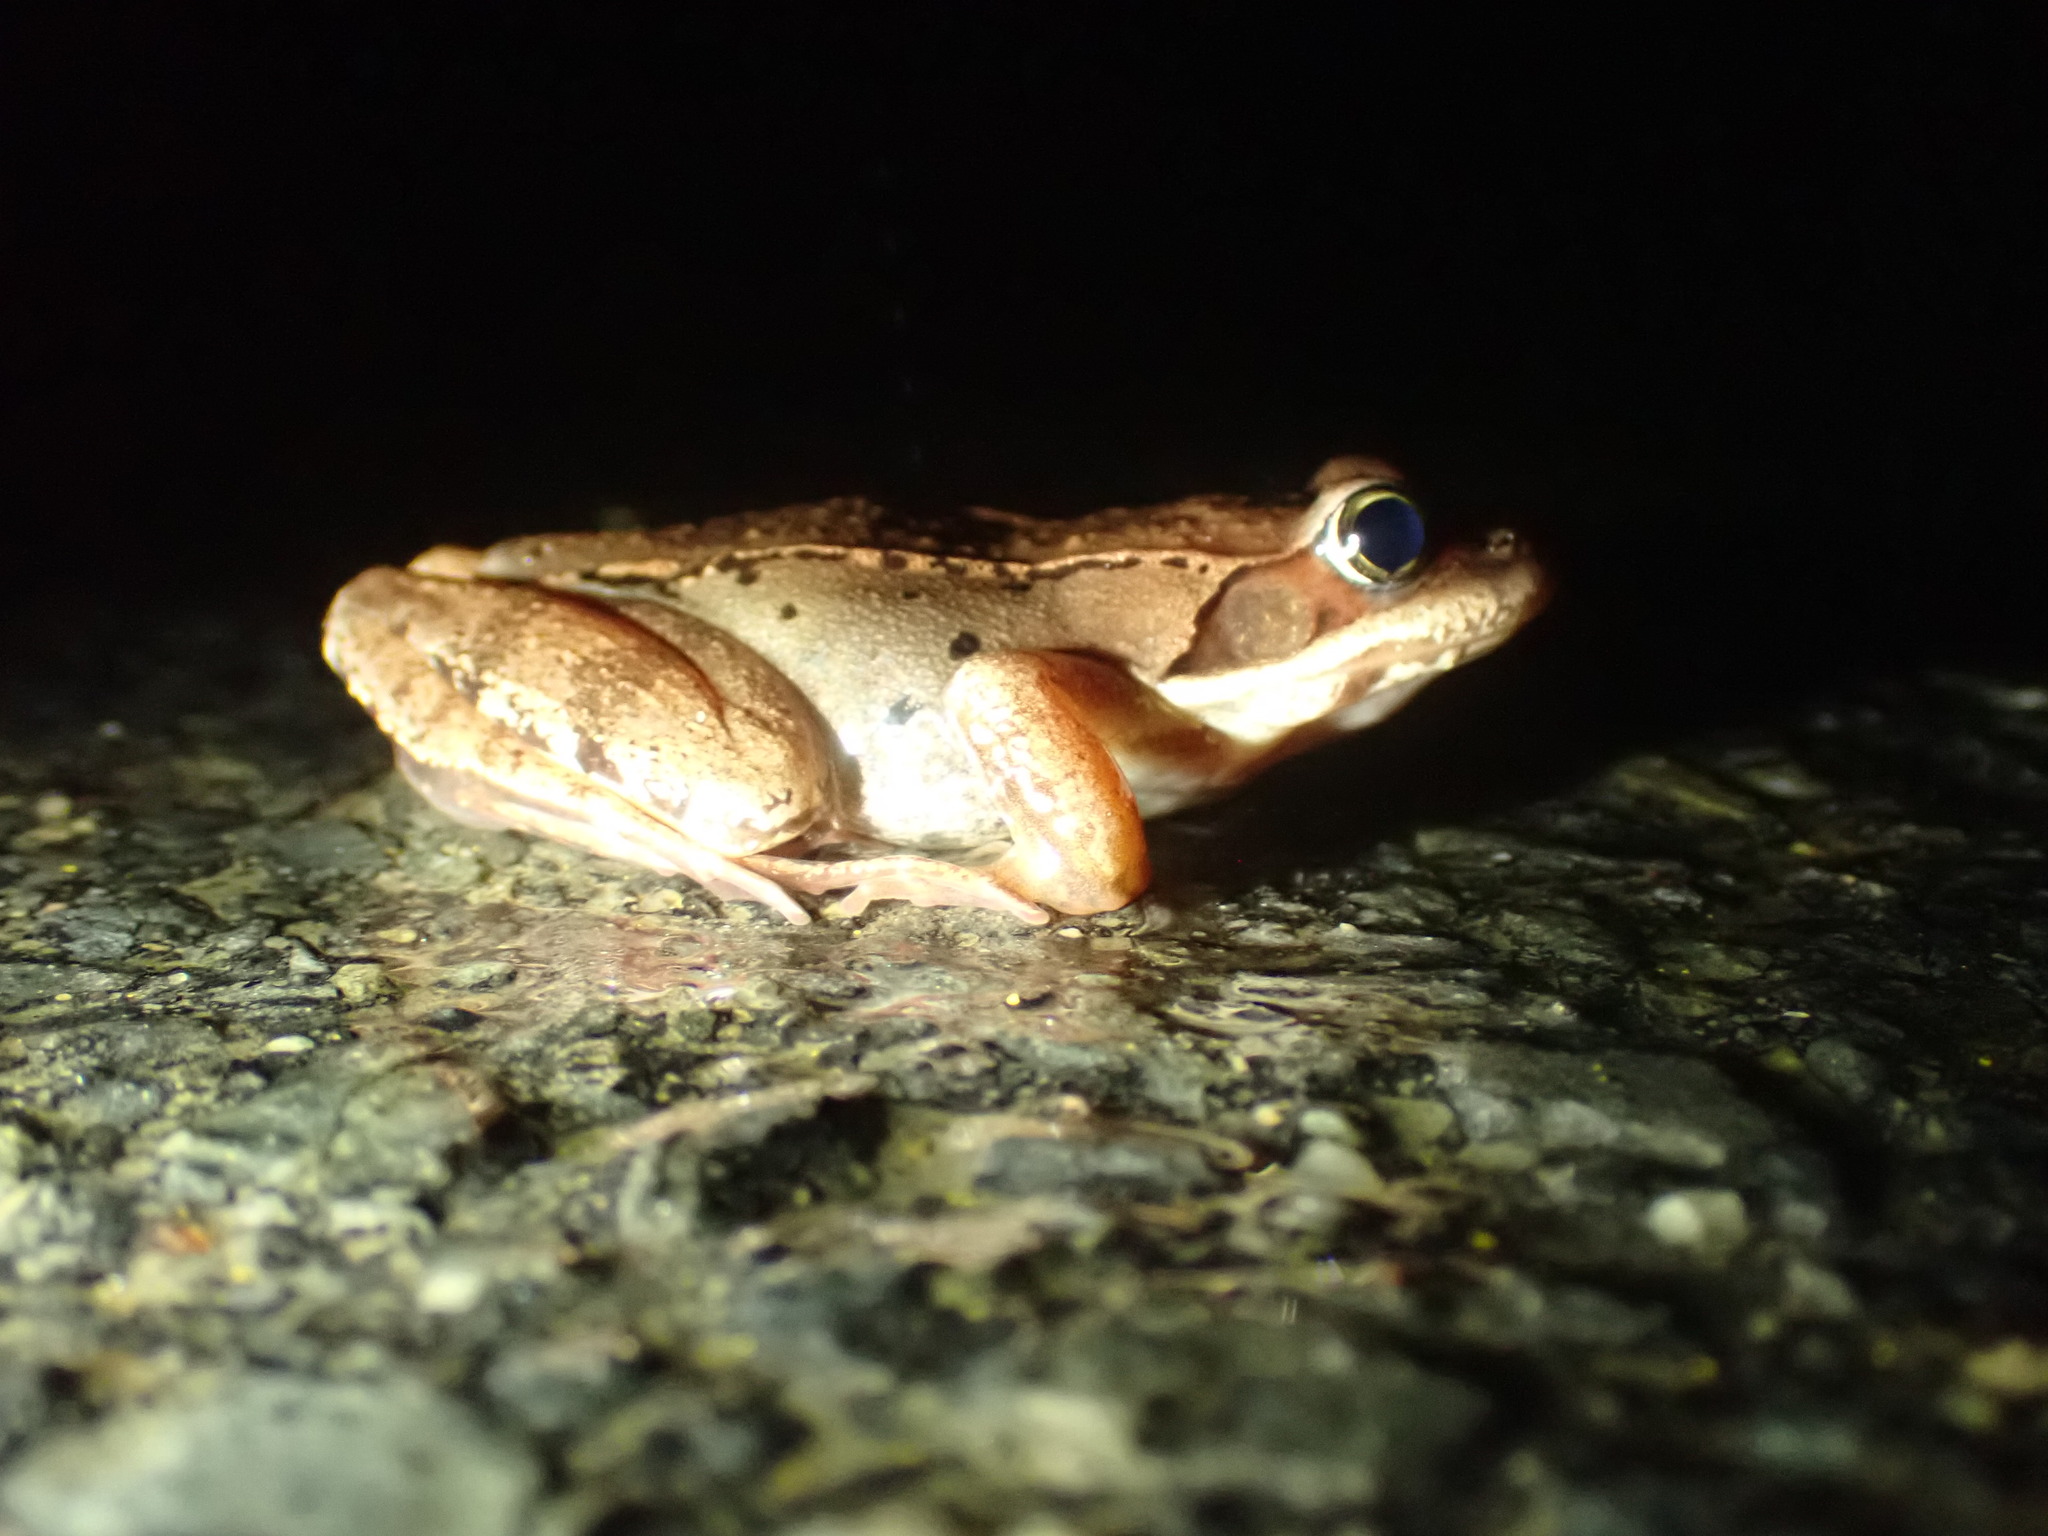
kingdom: Animalia
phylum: Chordata
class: Amphibia
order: Anura
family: Ranidae
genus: Lithobates
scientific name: Lithobates sylvaticus
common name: Wood frog
